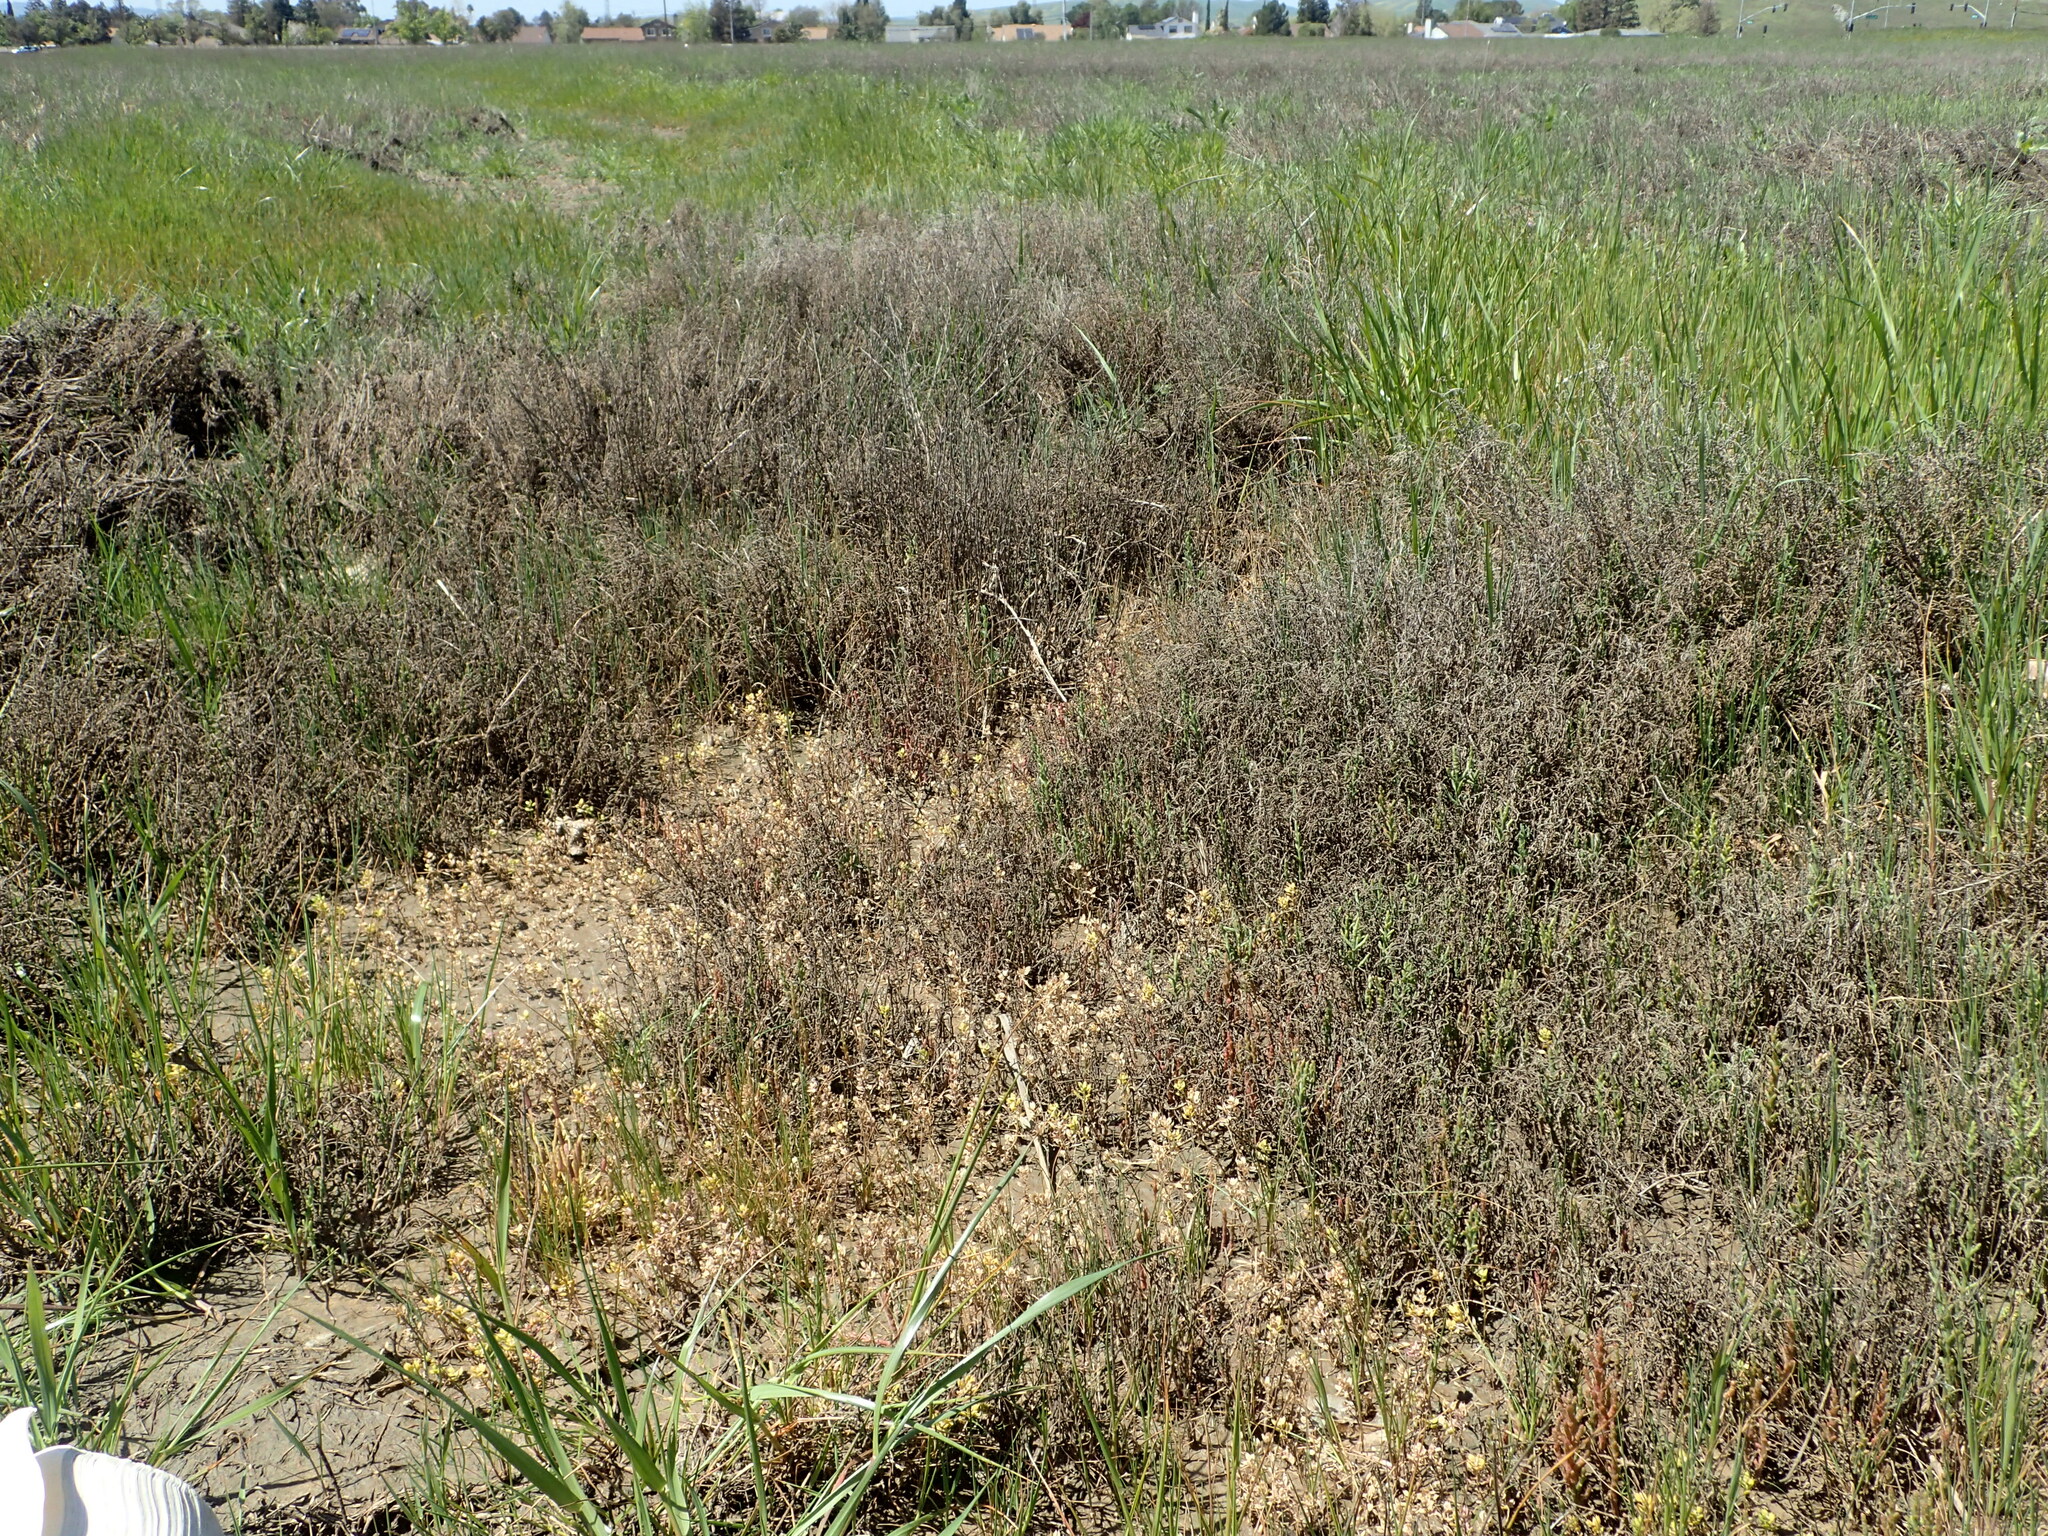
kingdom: Plantae
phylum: Tracheophyta
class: Magnoliopsida
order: Brassicales
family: Brassicaceae
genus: Lepidium
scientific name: Lepidium oxycarpum
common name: Forked peppergrass
